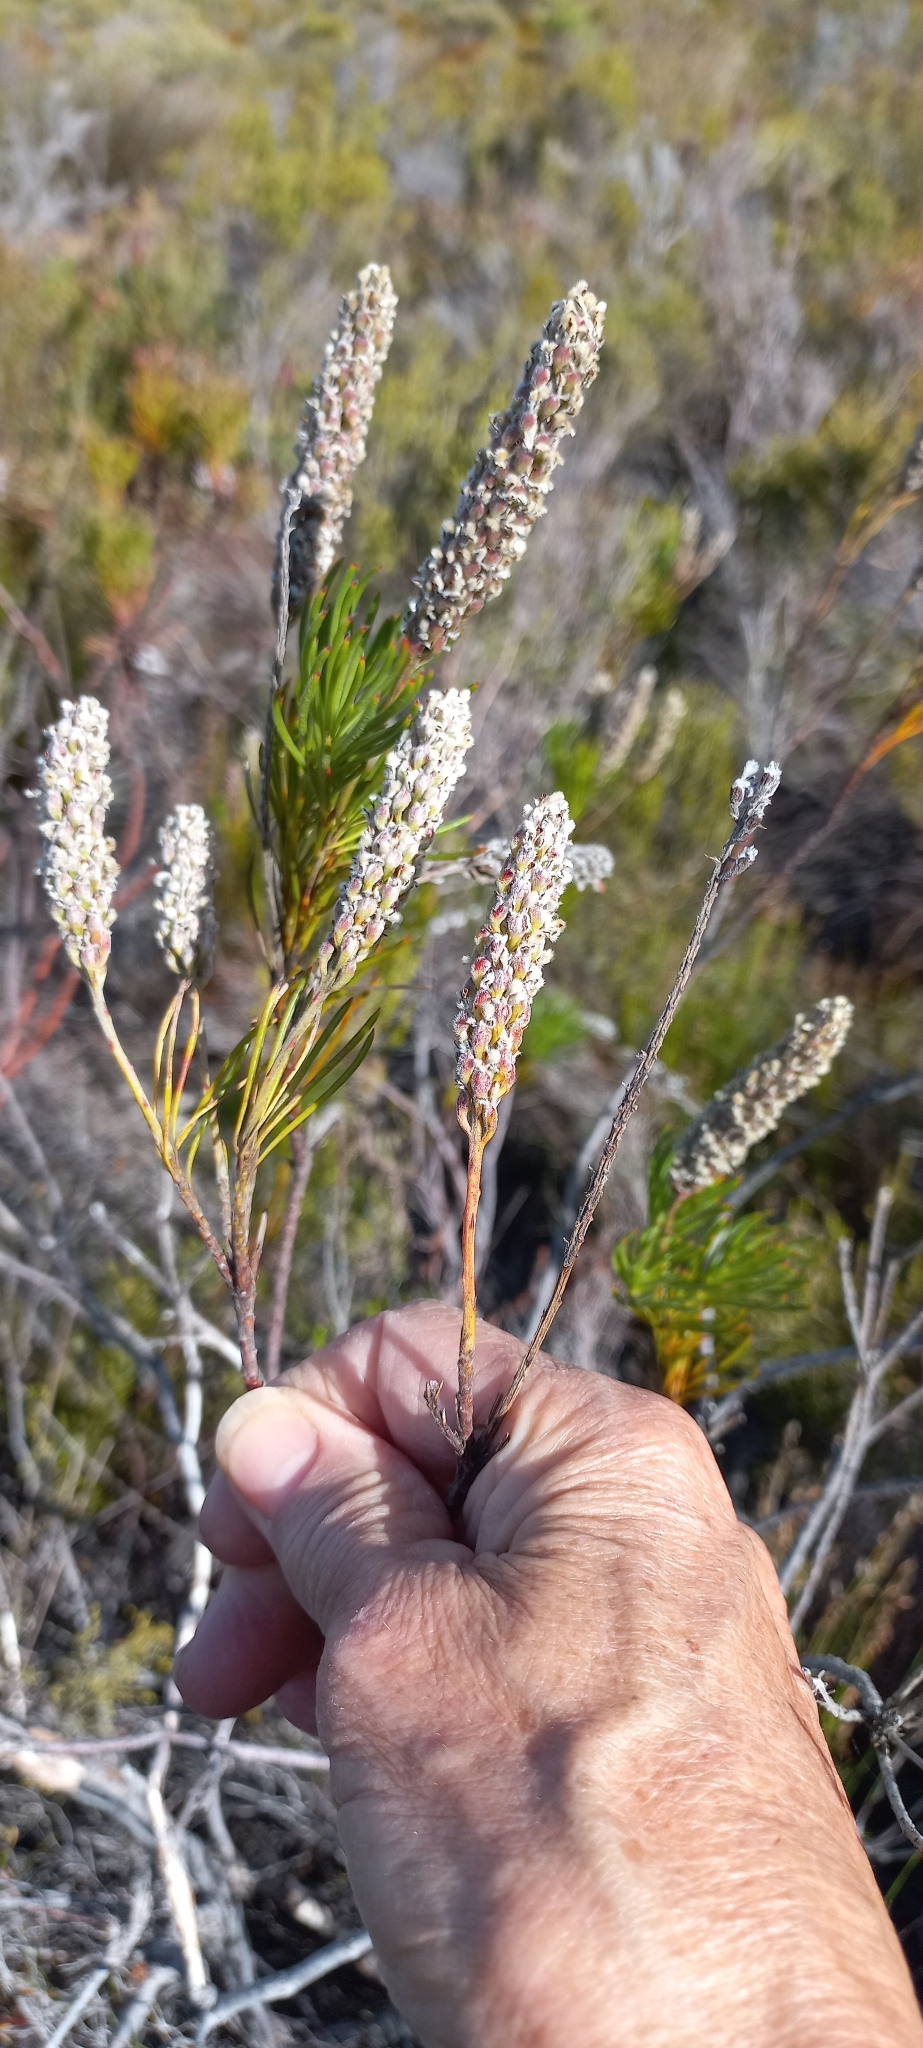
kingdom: Plantae
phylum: Tracheophyta
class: Magnoliopsida
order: Proteales
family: Proteaceae
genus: Spatalla
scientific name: Spatalla curvifolia
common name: White-stalked spoon
